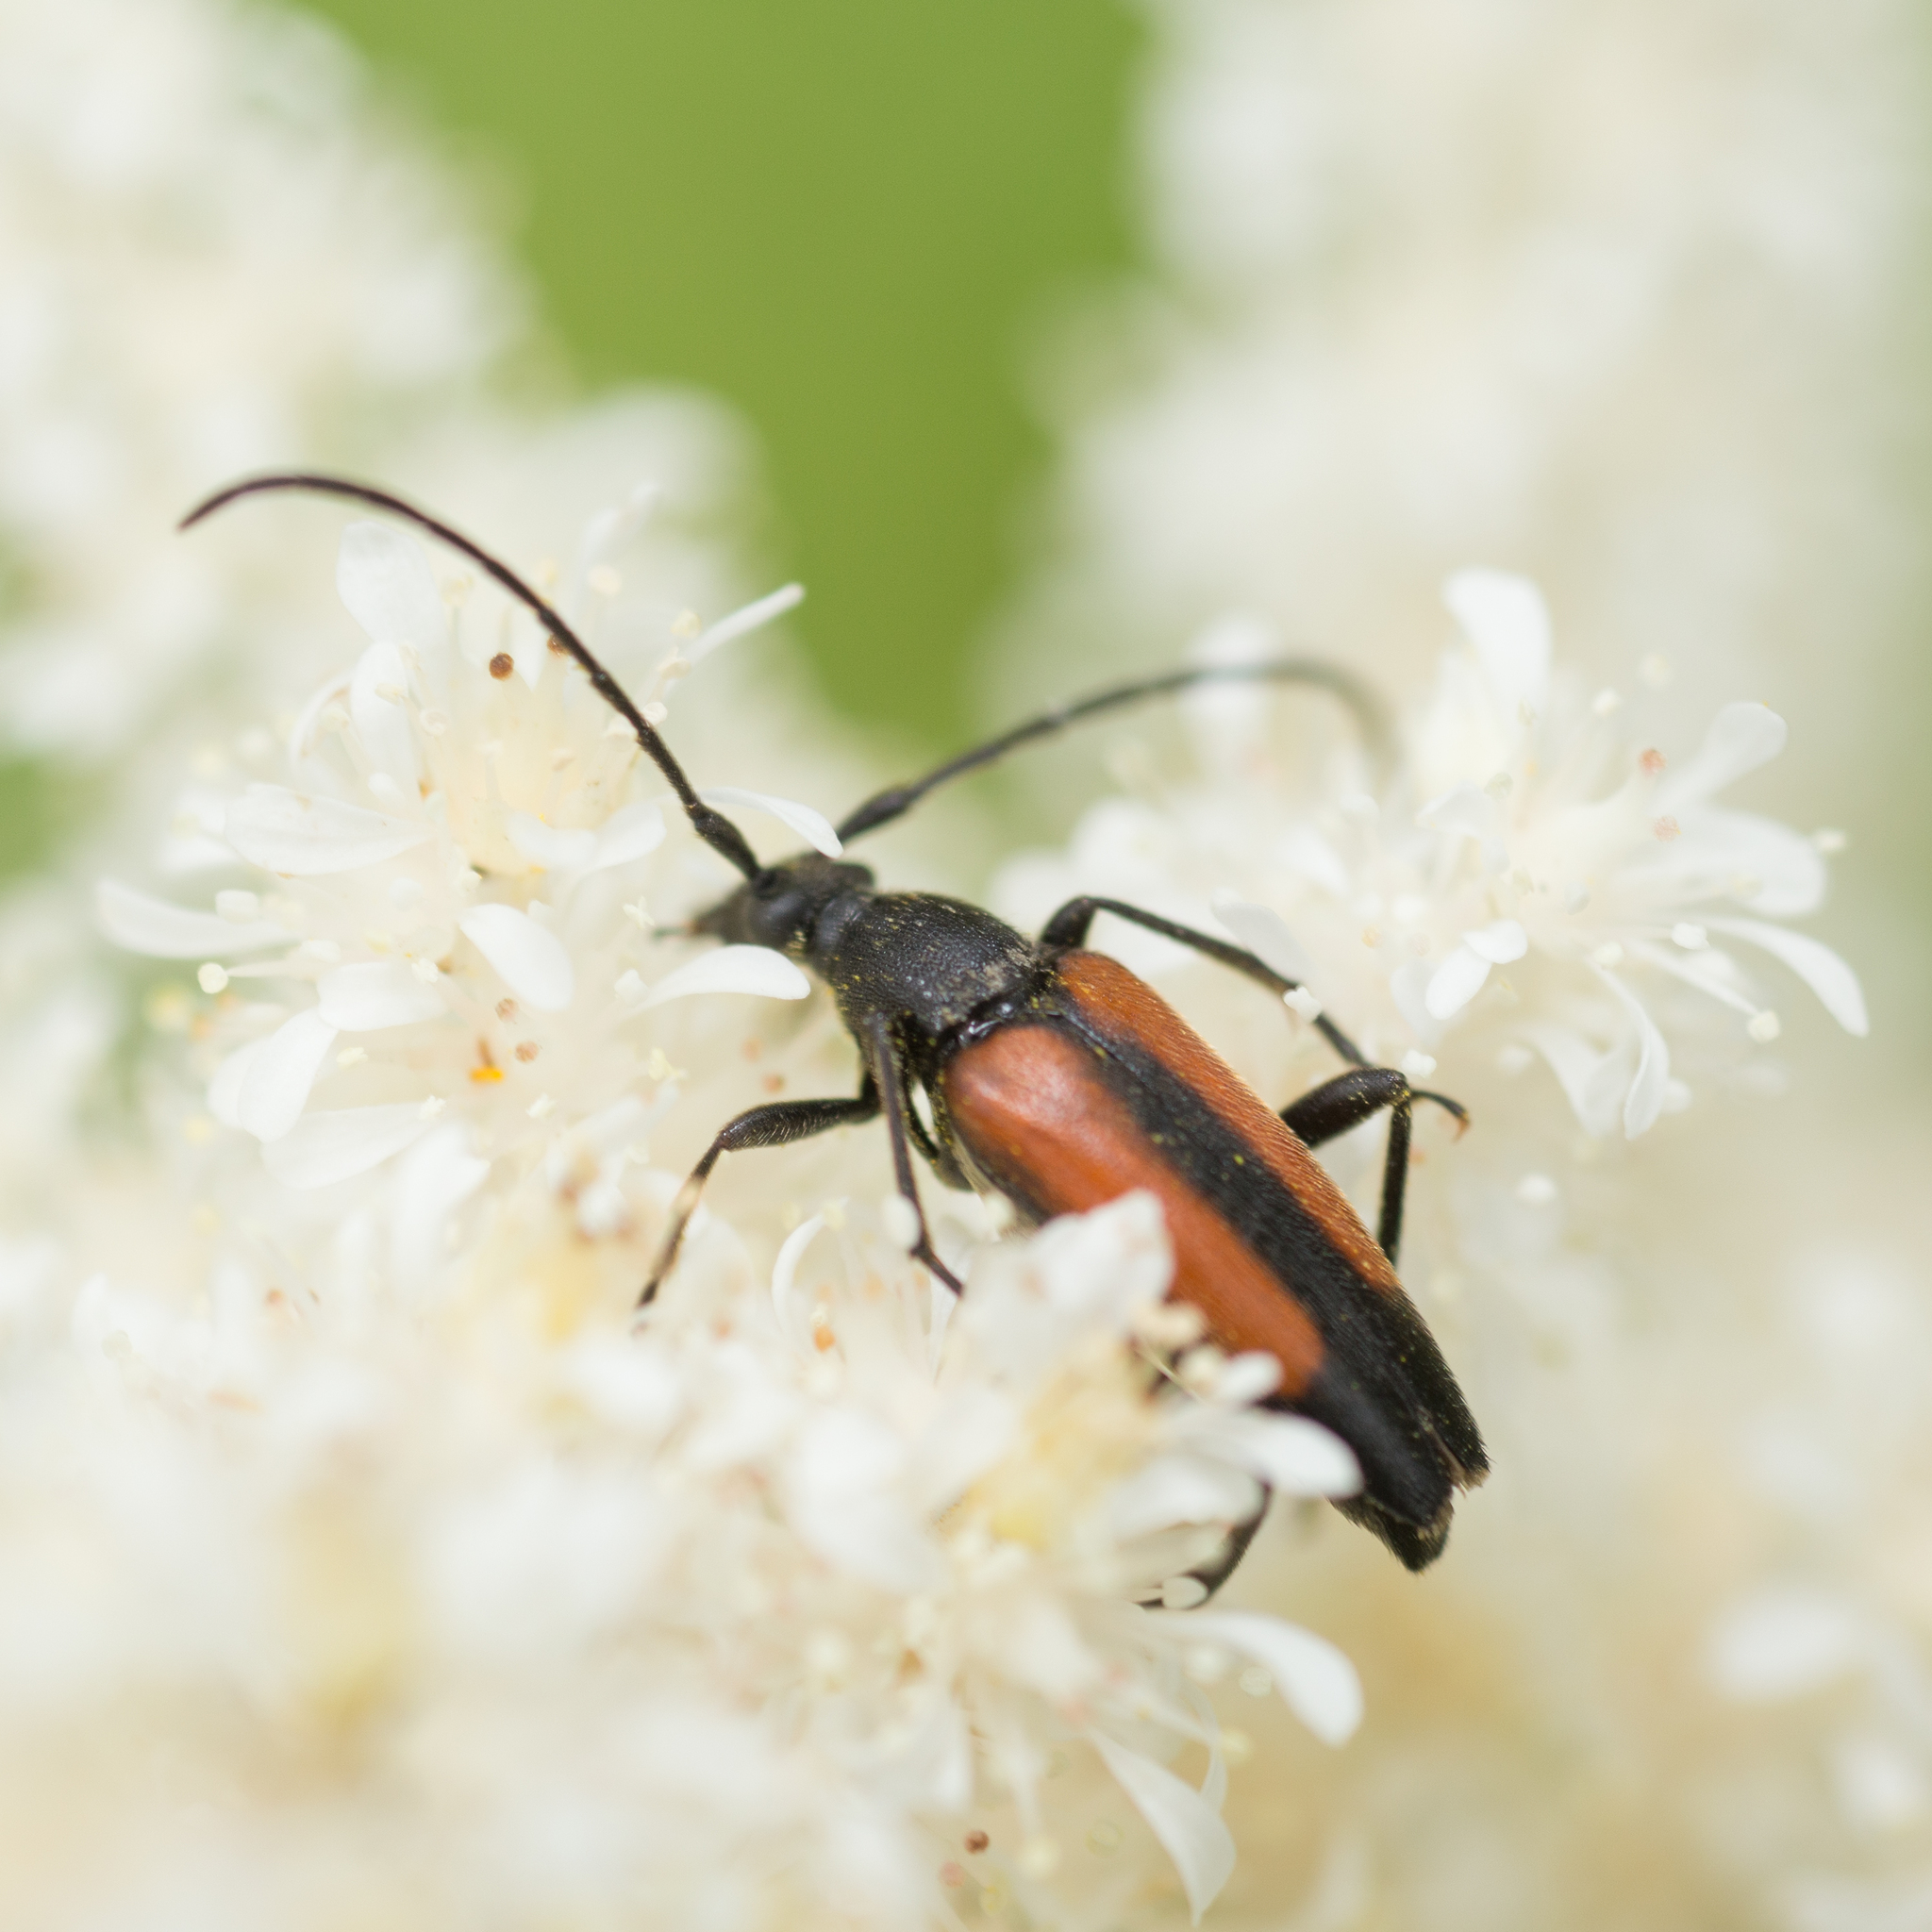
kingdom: Animalia
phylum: Arthropoda
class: Insecta
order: Coleoptera
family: Cerambycidae
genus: Stenurella
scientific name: Stenurella melanura
